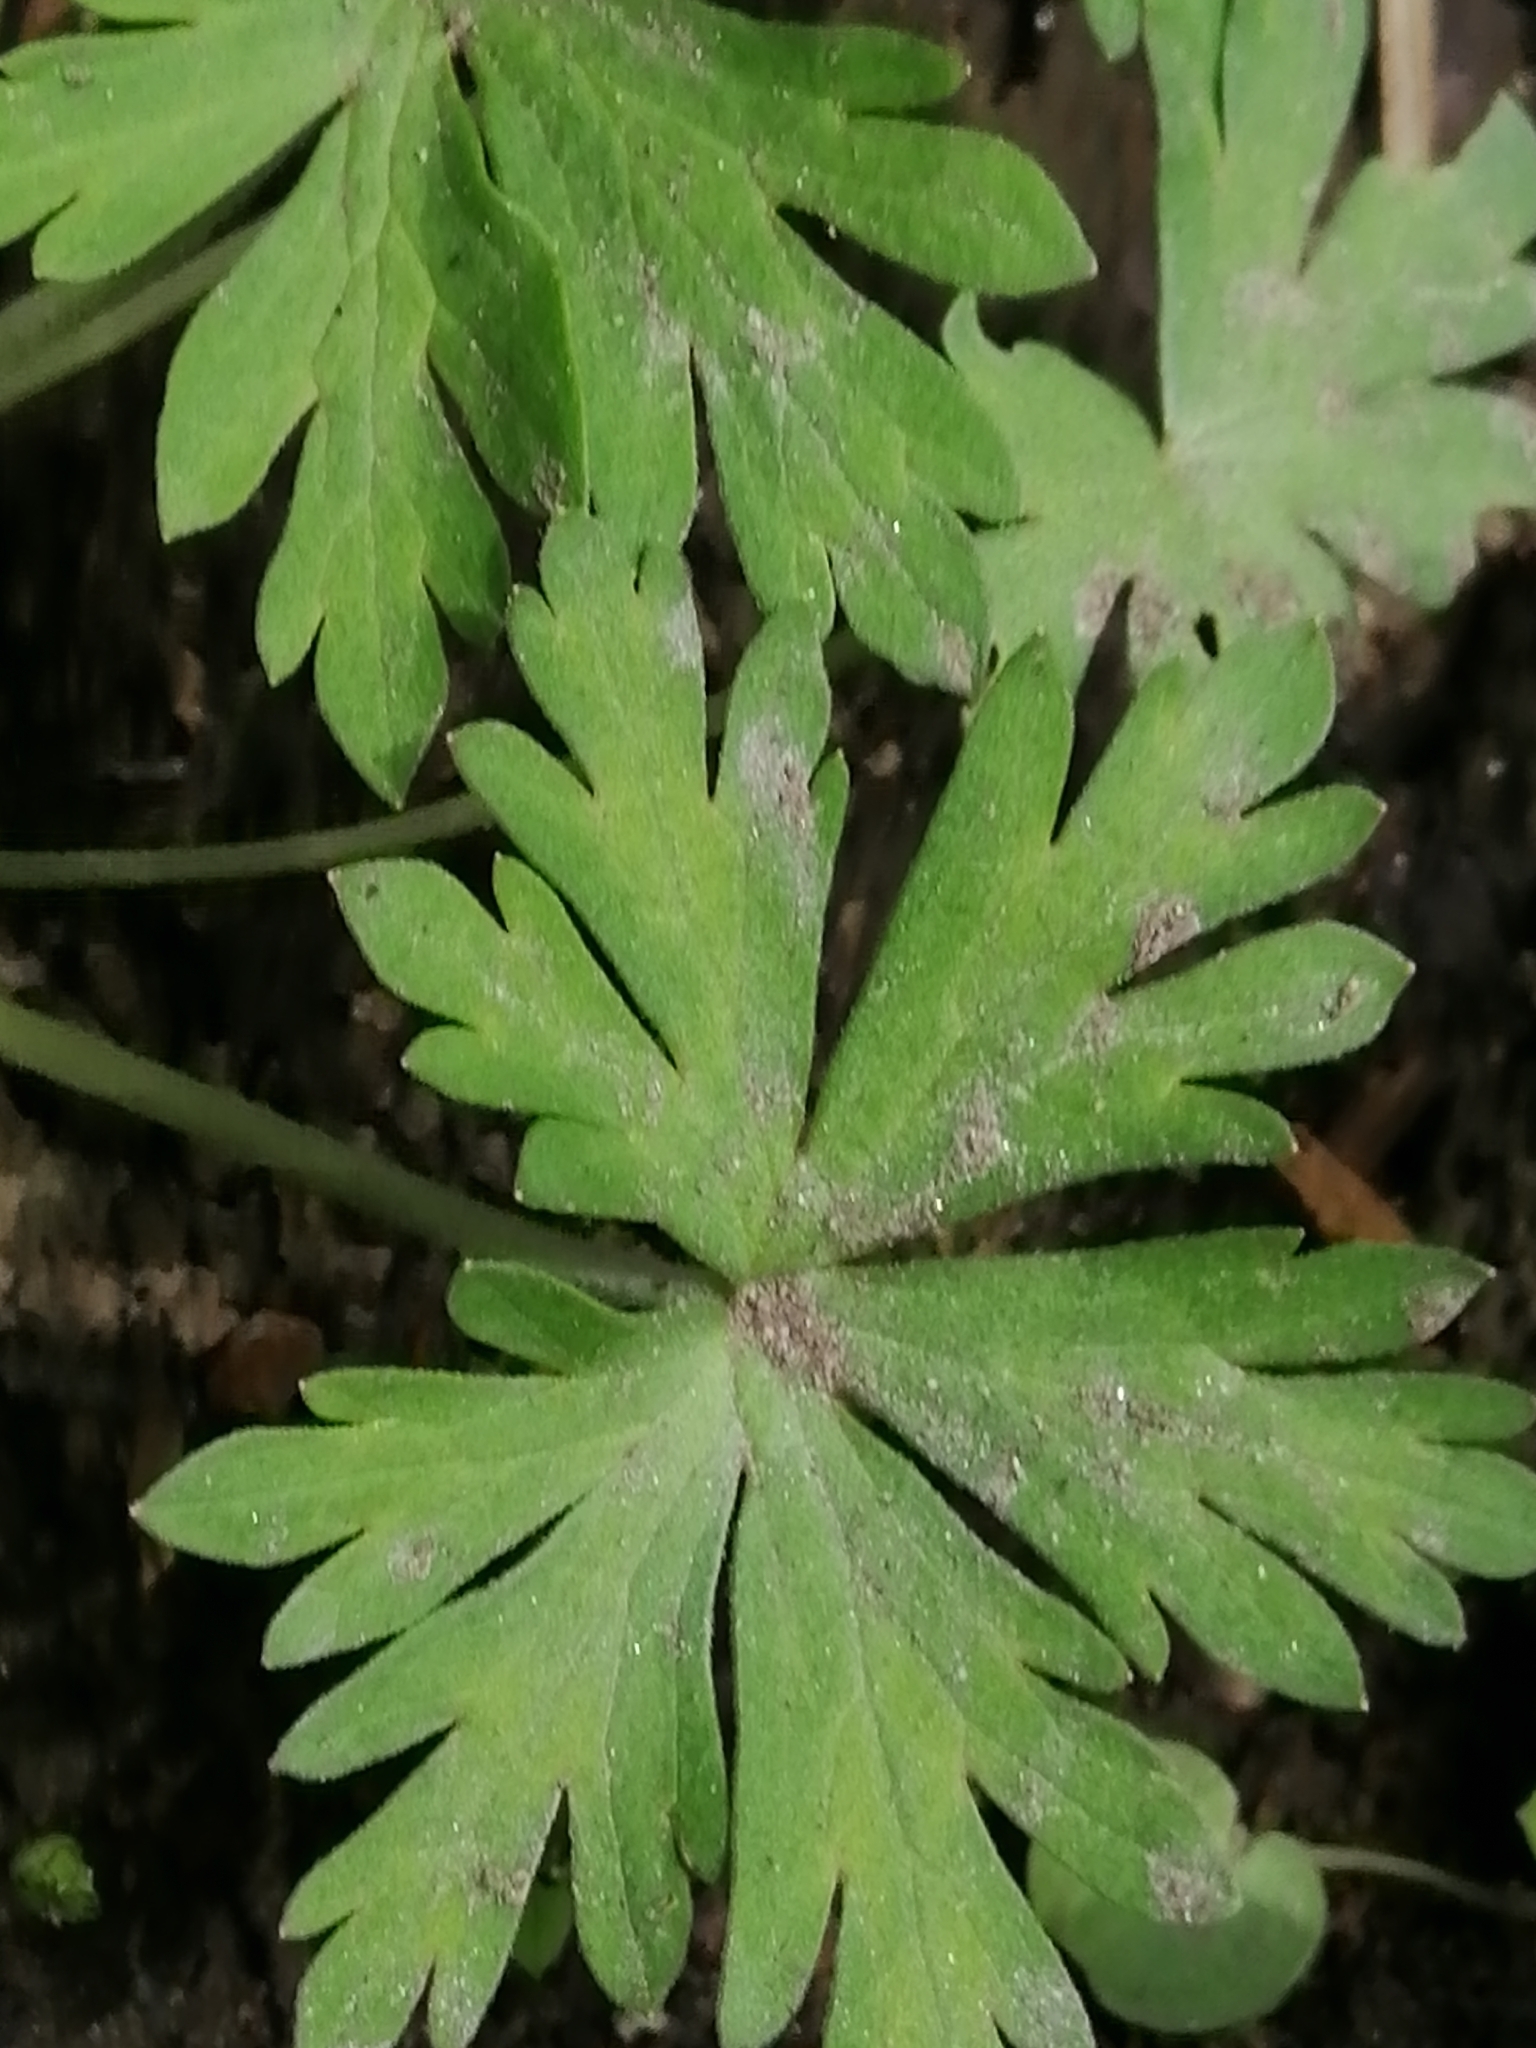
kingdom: Plantae
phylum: Tracheophyta
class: Magnoliopsida
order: Geraniales
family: Geraniaceae
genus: Geranium
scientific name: Geranium sibiricum
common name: Siberian crane's-bill
